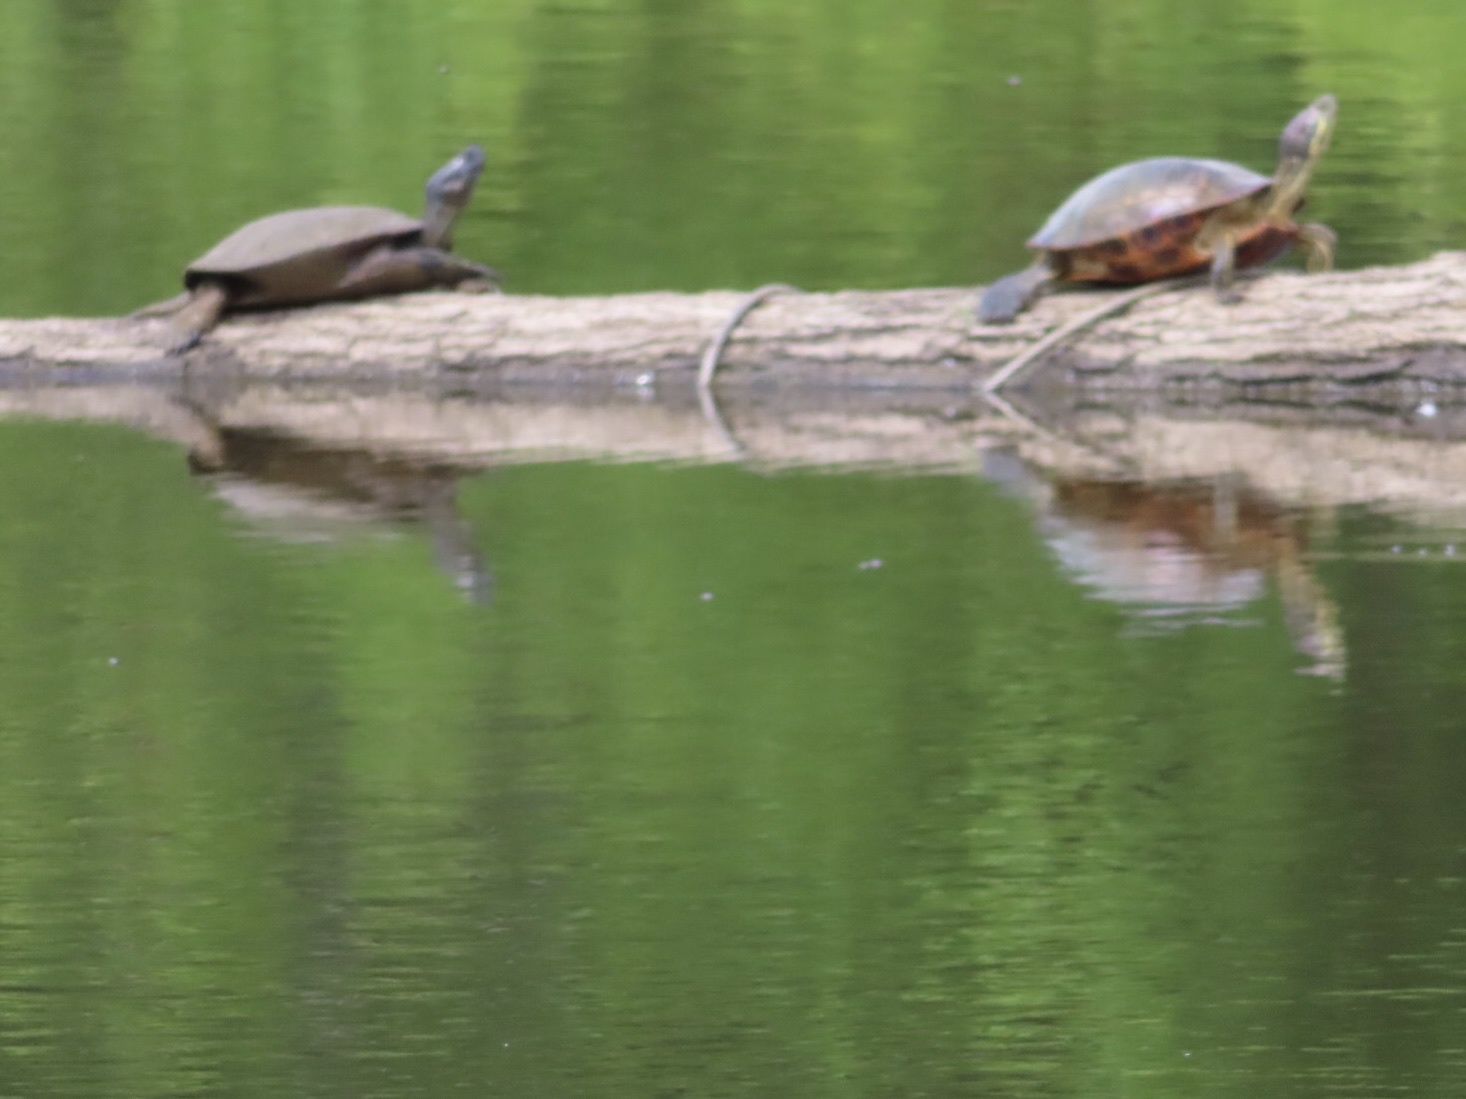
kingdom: Animalia
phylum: Chordata
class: Testudines
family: Emydidae
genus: Trachemys
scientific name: Trachemys scripta
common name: Slider
